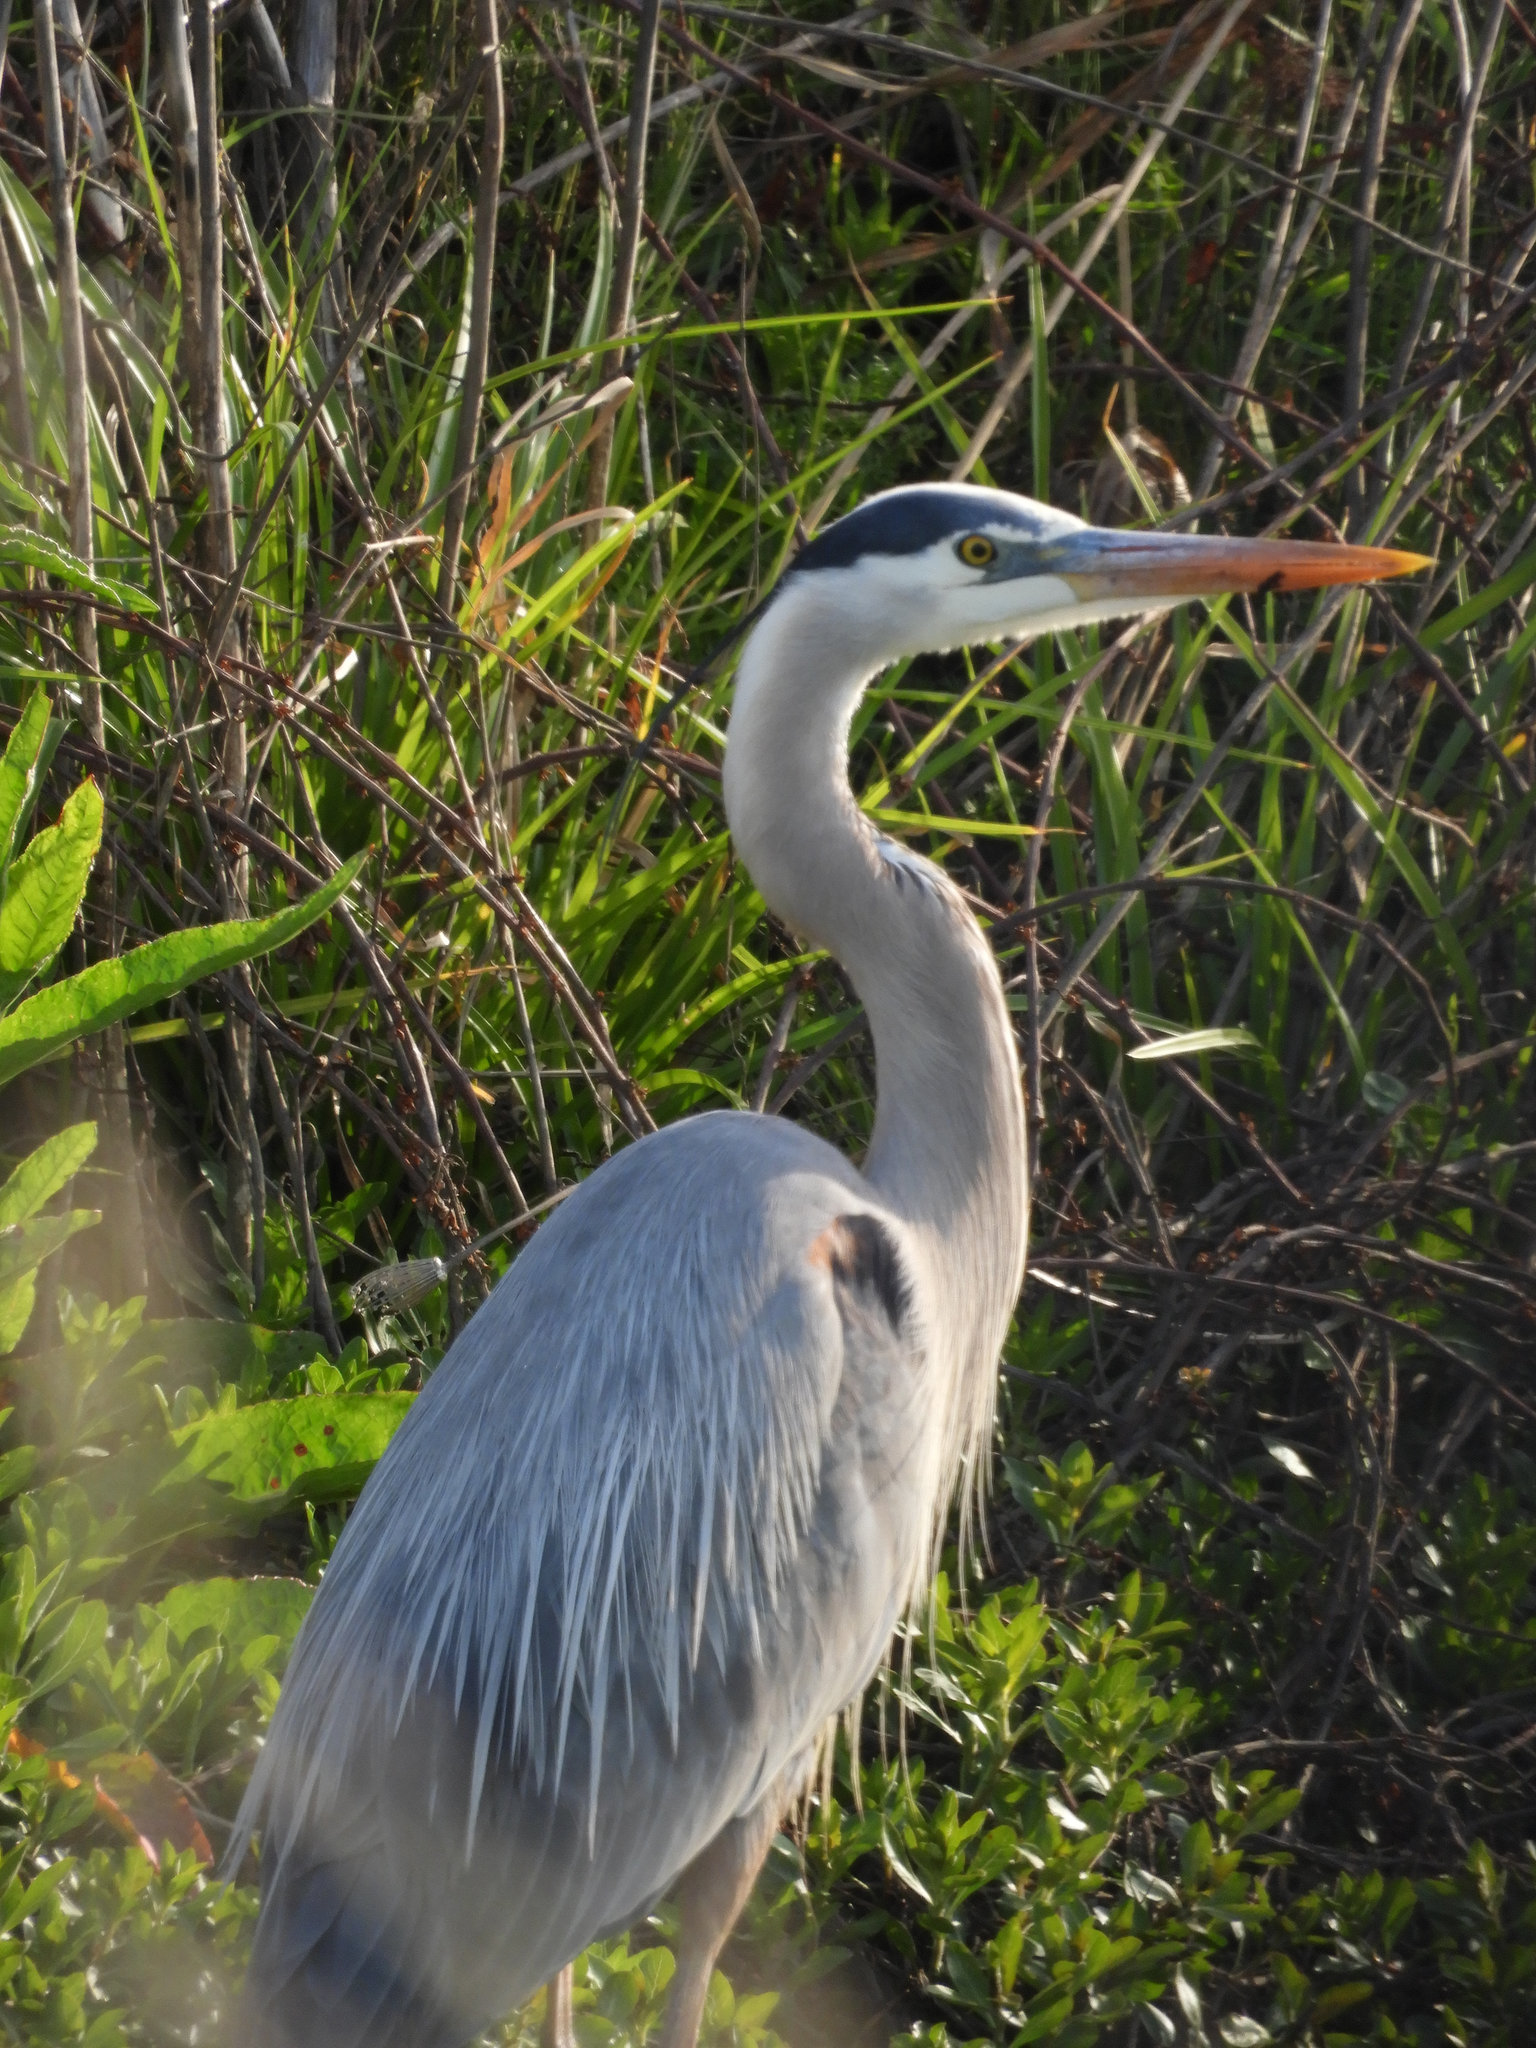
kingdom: Animalia
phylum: Chordata
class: Aves
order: Pelecaniformes
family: Ardeidae
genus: Ardea
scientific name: Ardea herodias
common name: Great blue heron
